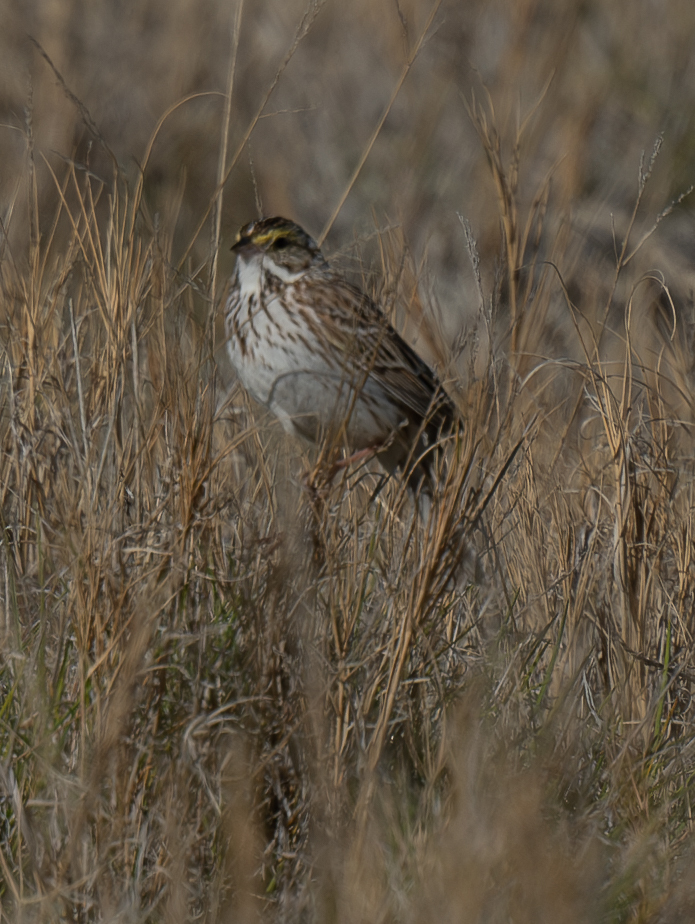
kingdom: Animalia
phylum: Chordata
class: Aves
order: Passeriformes
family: Passerellidae
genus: Passerculus
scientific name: Passerculus sandwichensis
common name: Savannah sparrow
